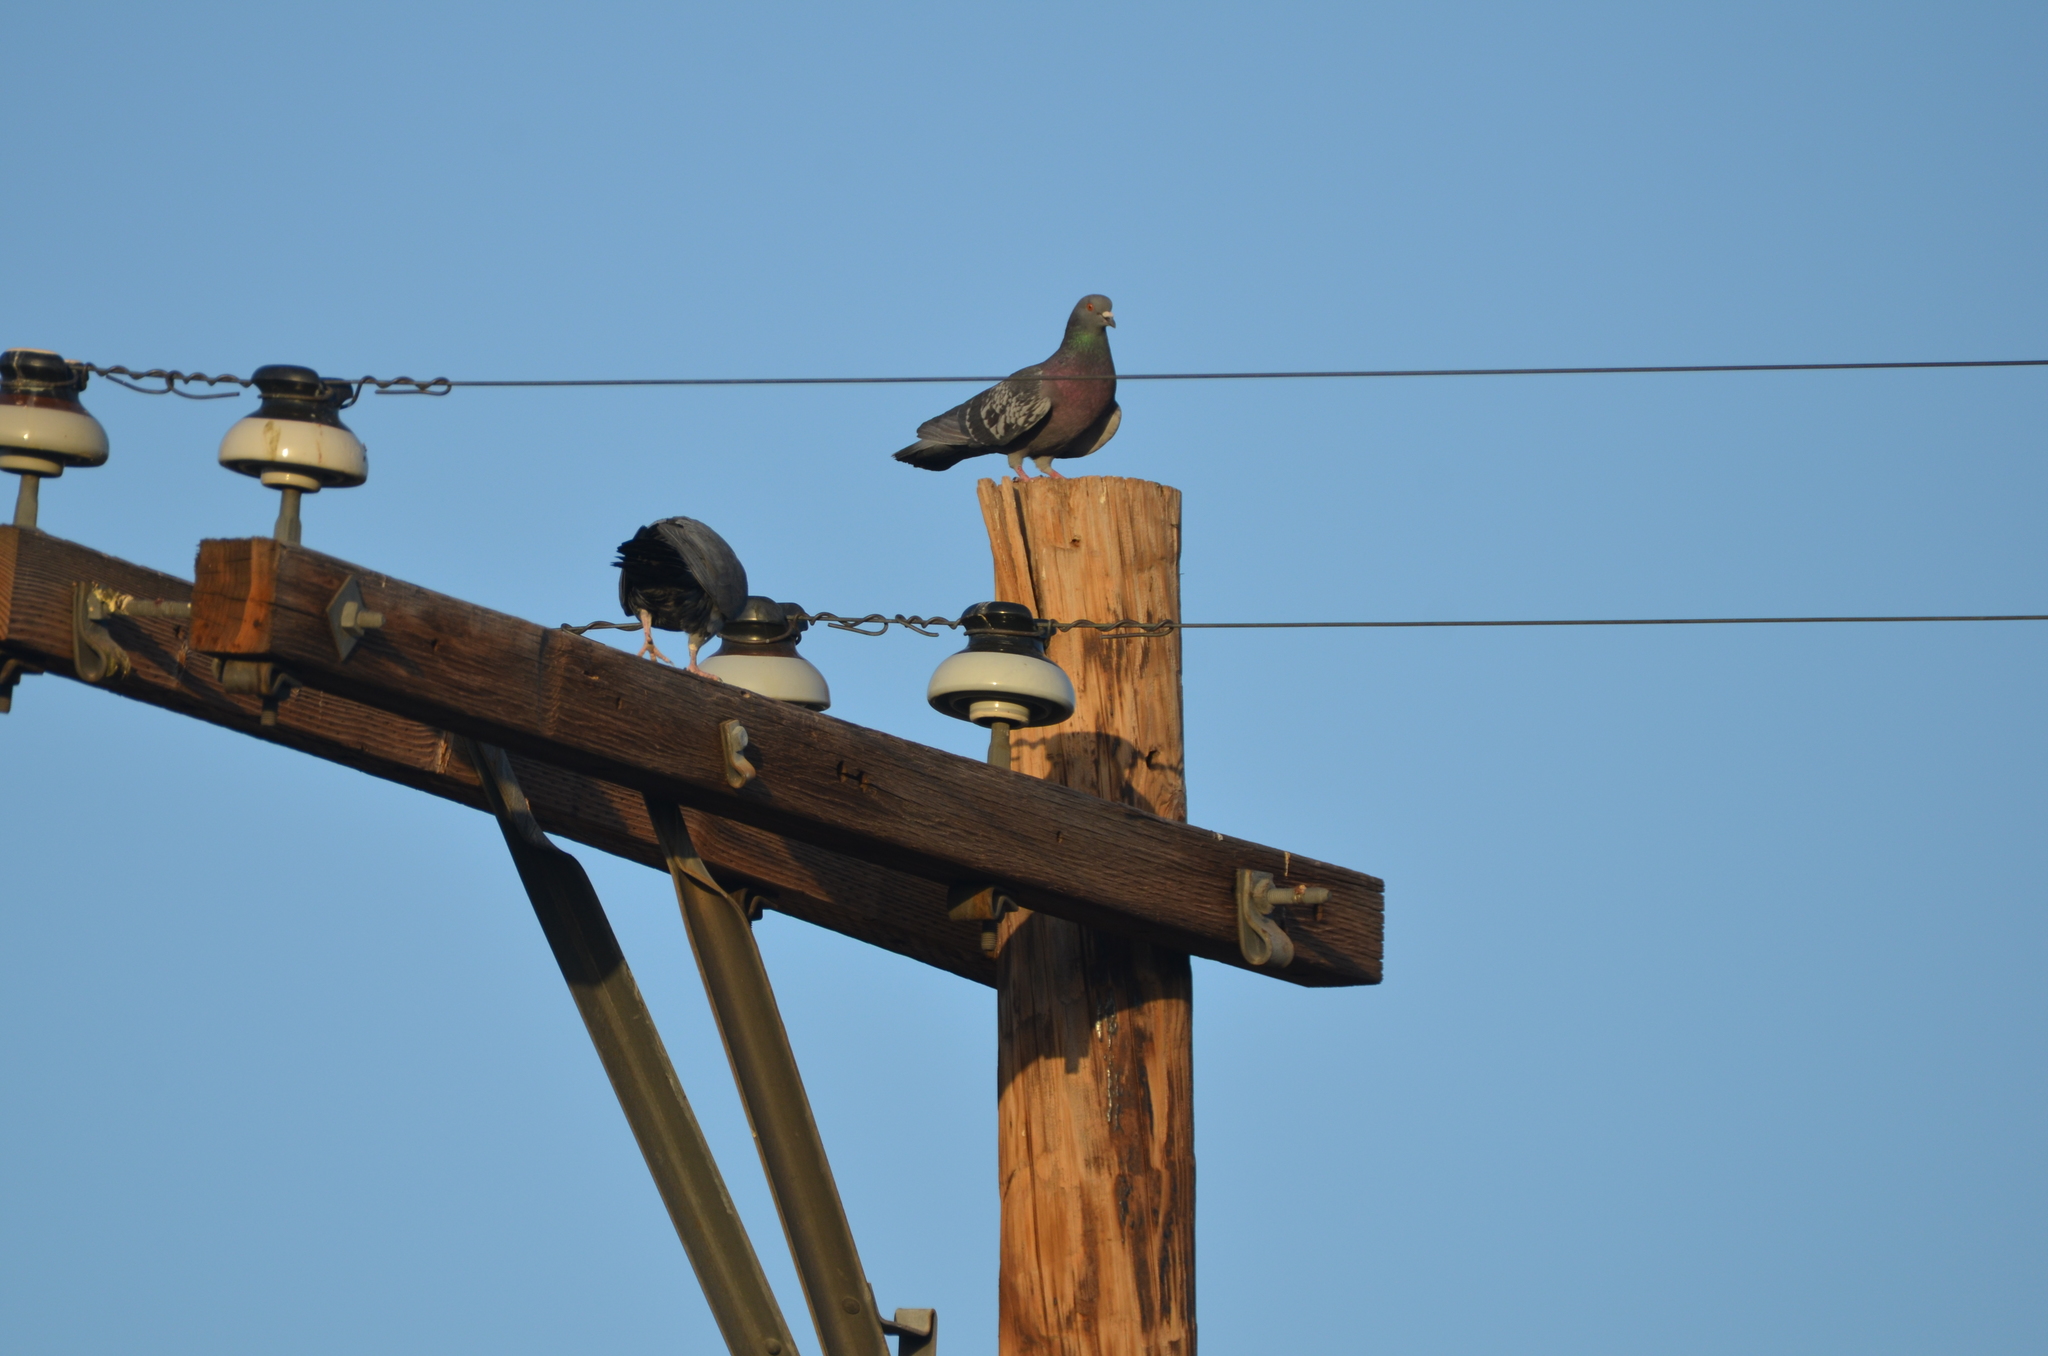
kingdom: Animalia
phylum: Chordata
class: Aves
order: Columbiformes
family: Columbidae
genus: Columba
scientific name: Columba livia
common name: Rock pigeon
